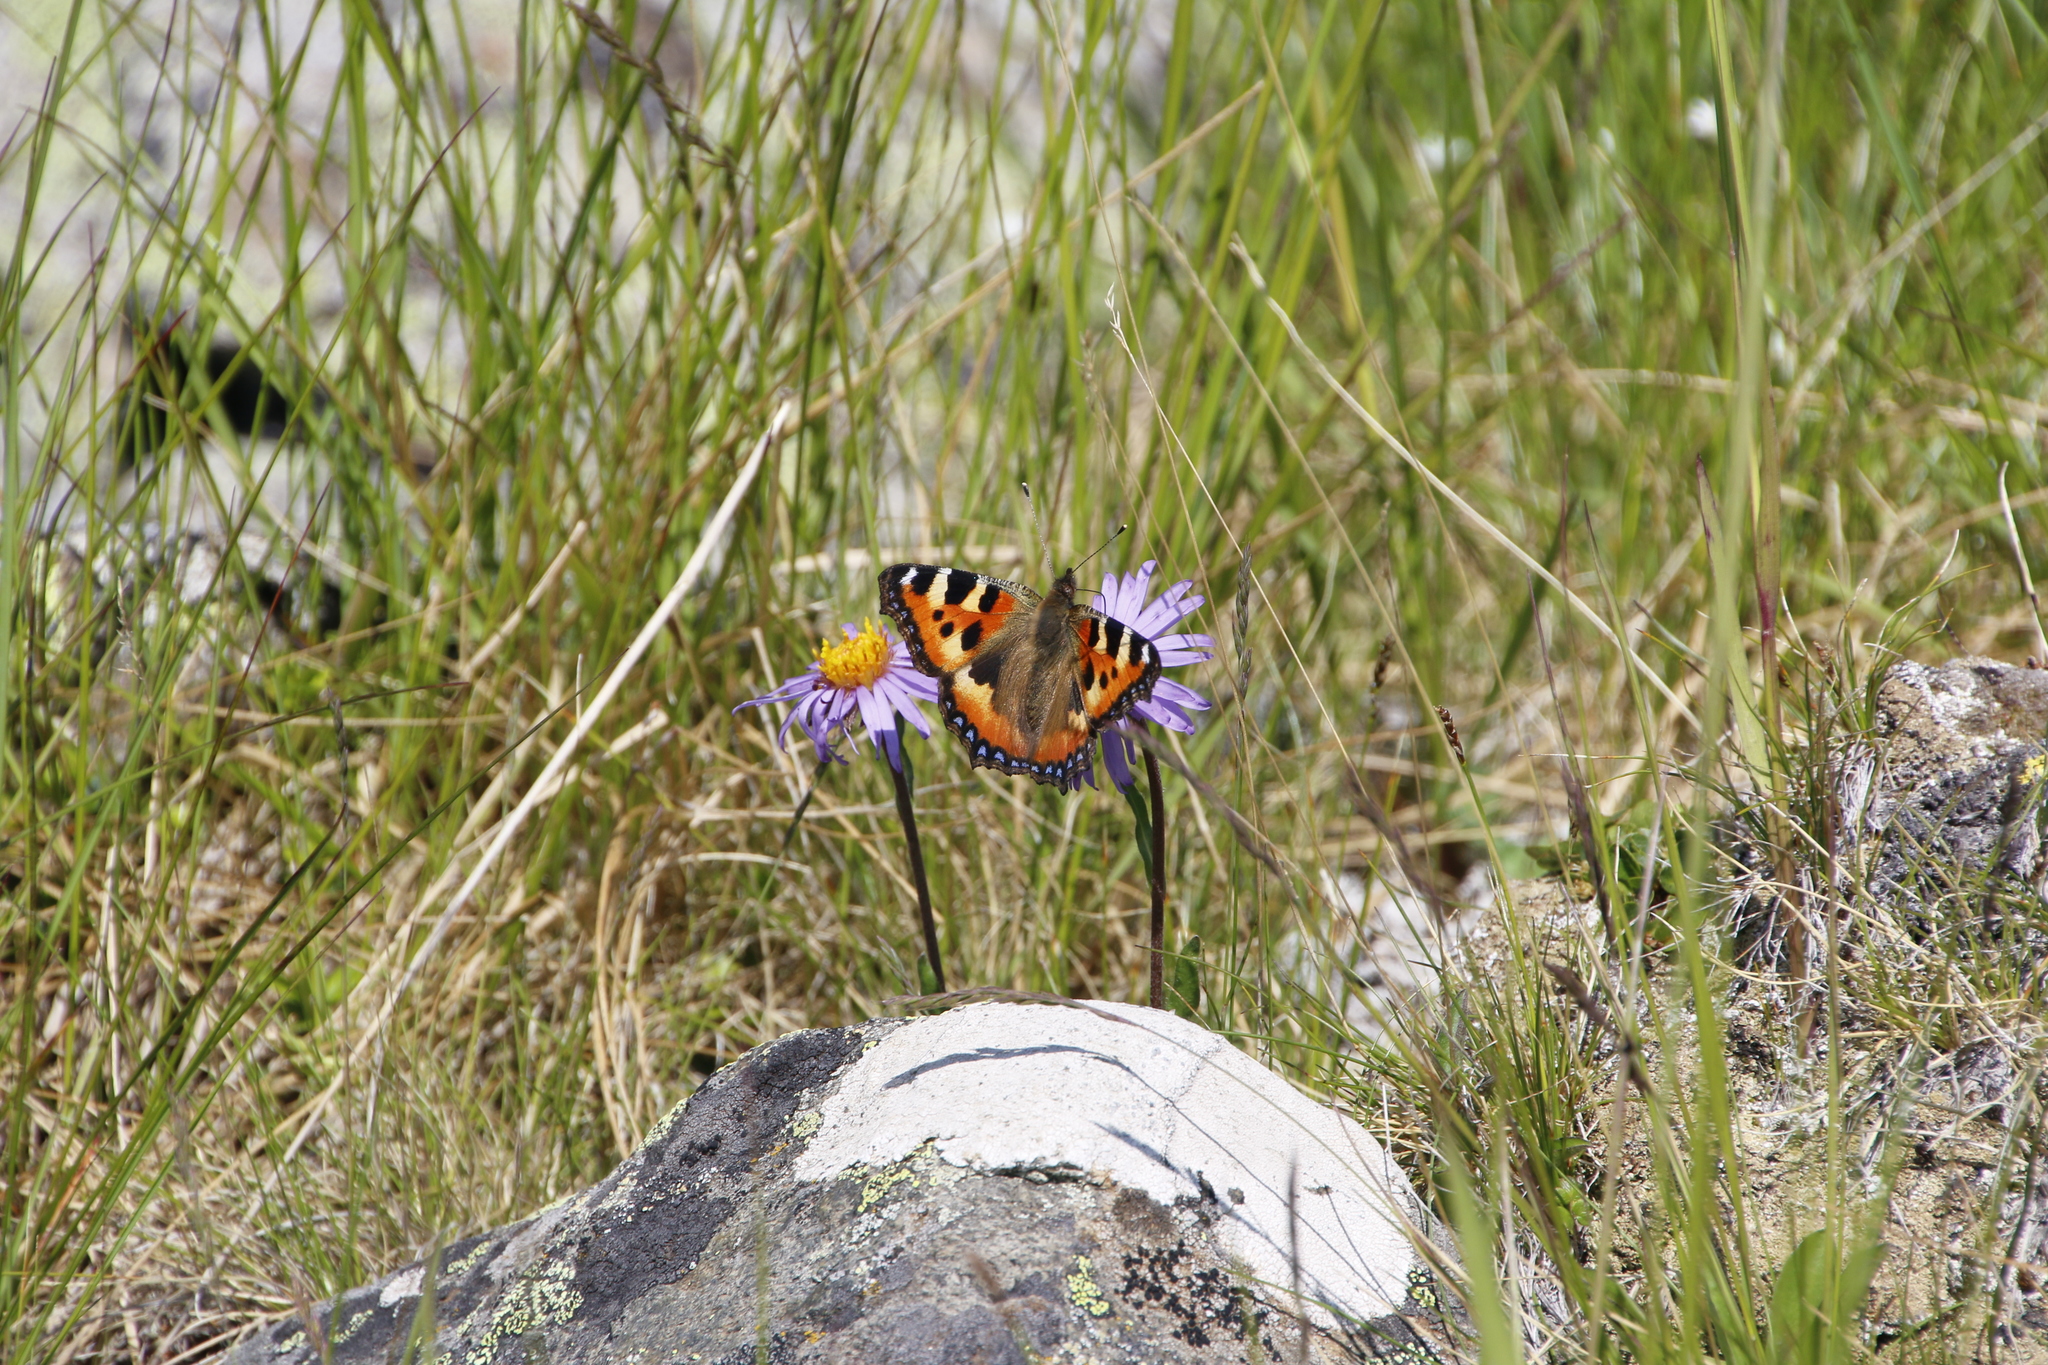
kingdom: Animalia
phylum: Arthropoda
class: Insecta
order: Lepidoptera
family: Nymphalidae
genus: Aglais
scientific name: Aglais urticae
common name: Small tortoiseshell
